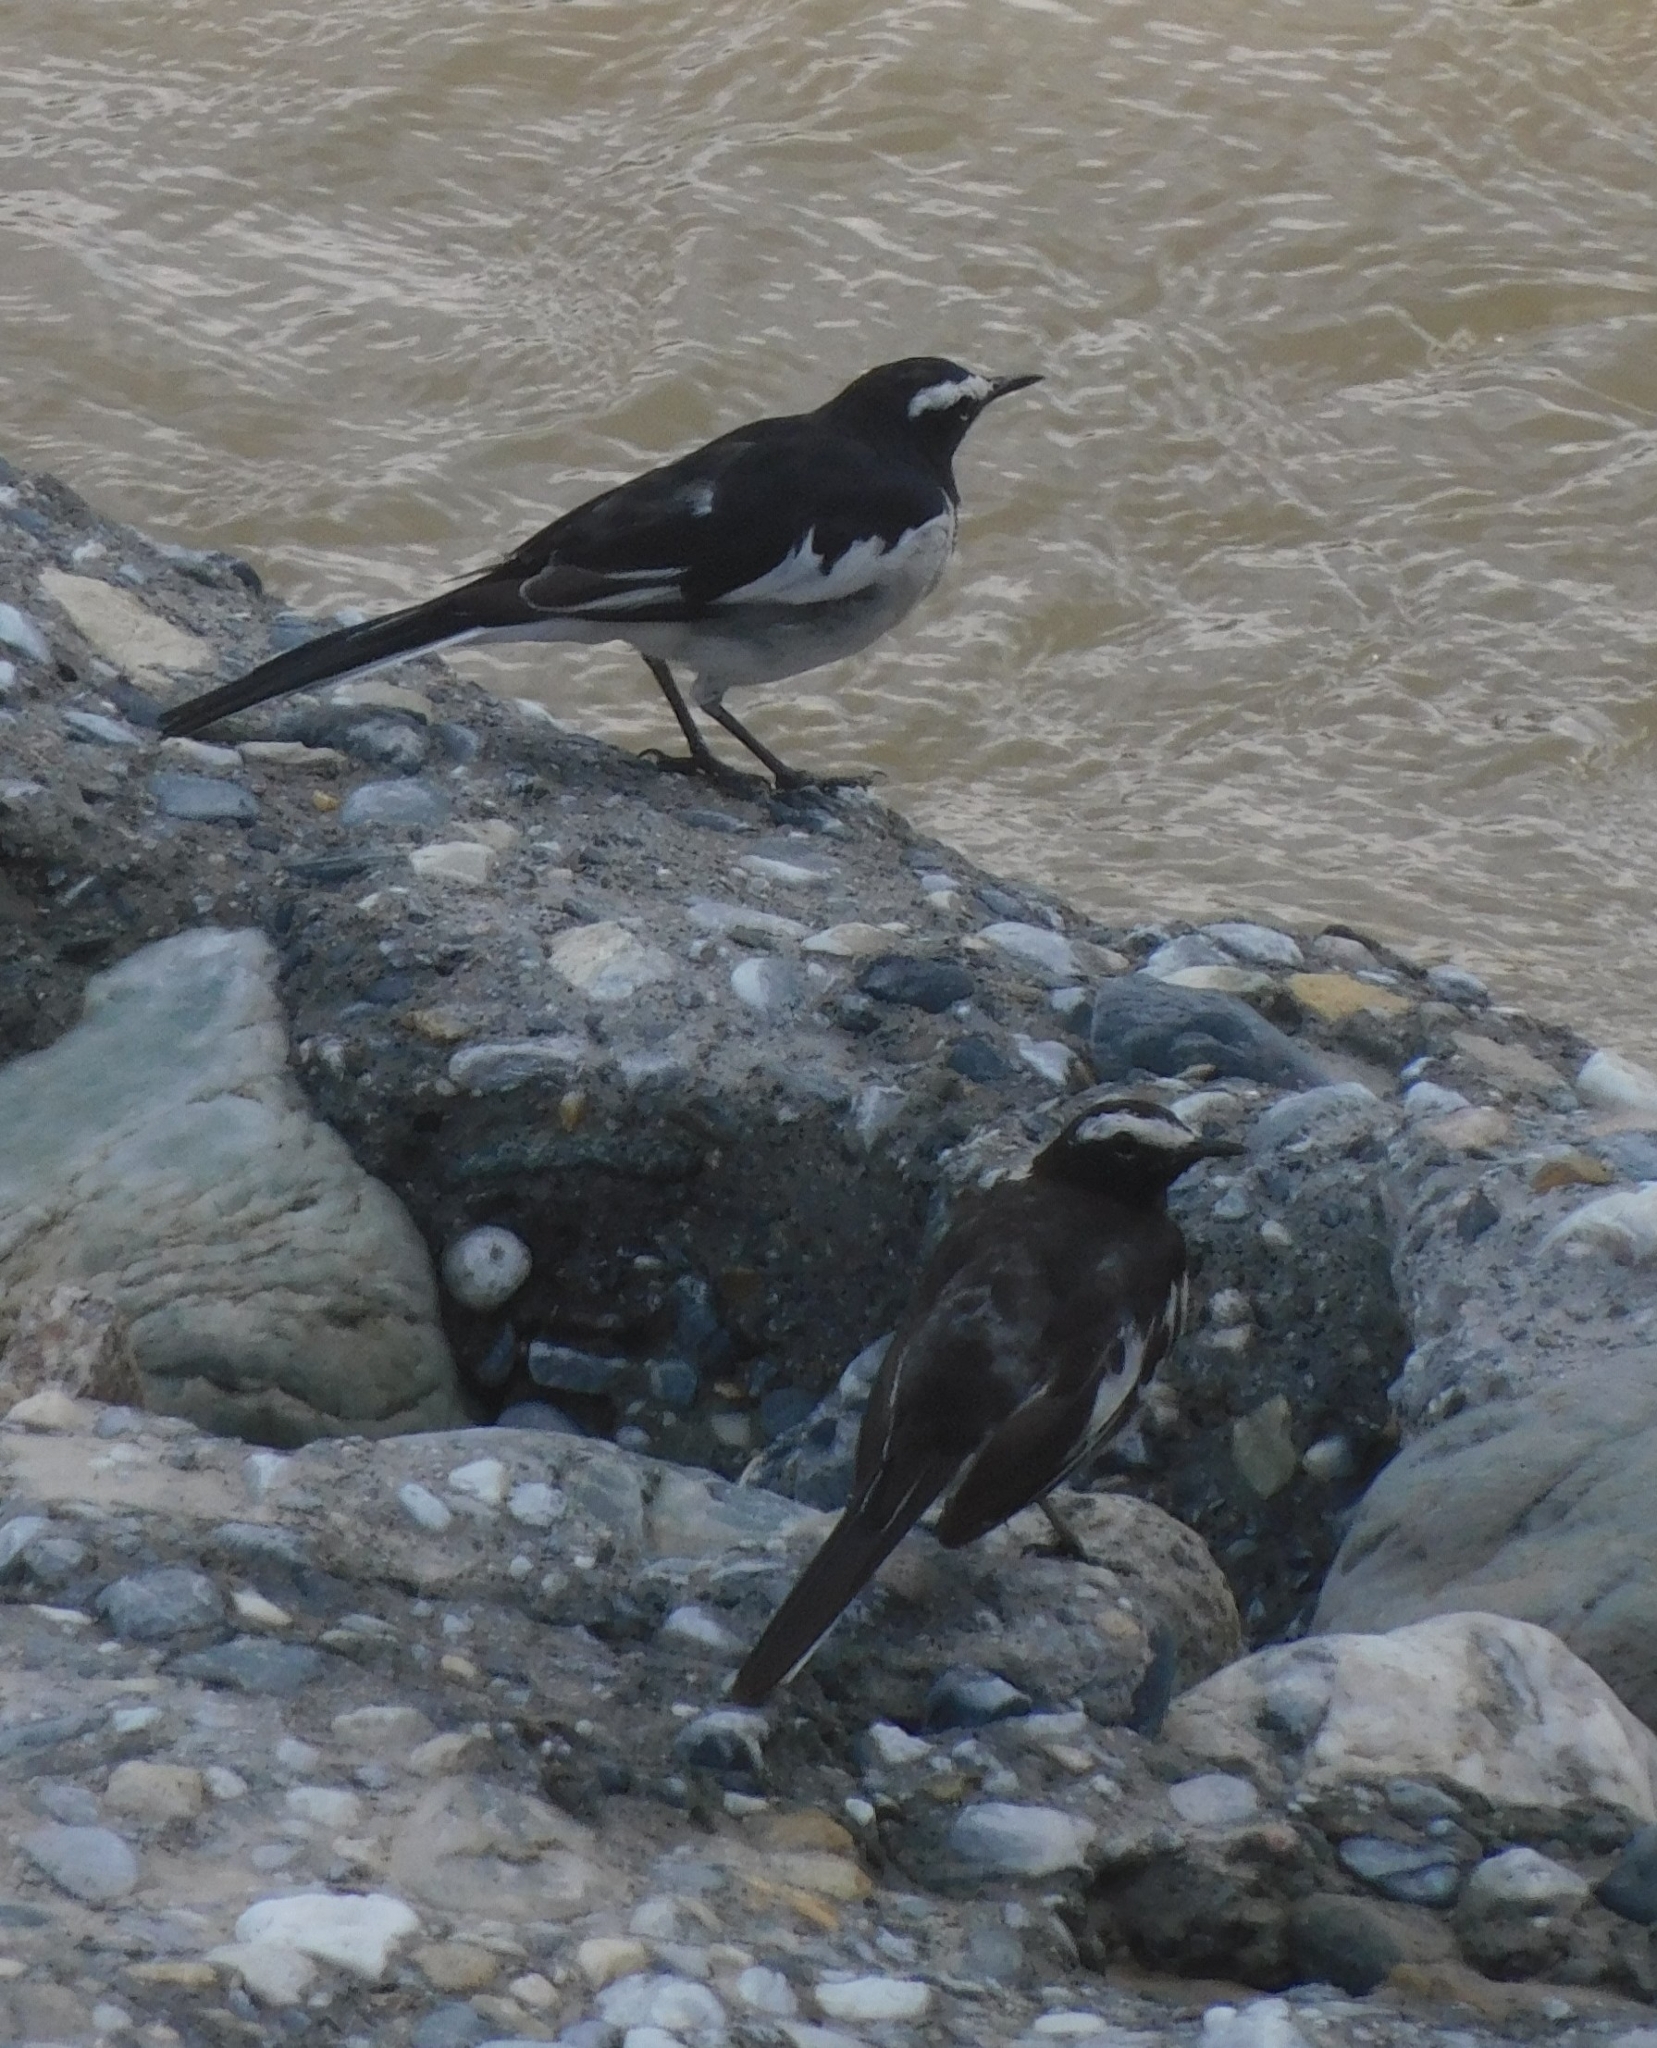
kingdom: Animalia
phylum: Chordata
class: Aves
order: Passeriformes
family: Motacillidae
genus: Motacilla
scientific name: Motacilla maderaspatensis
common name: White-browed wagtail
